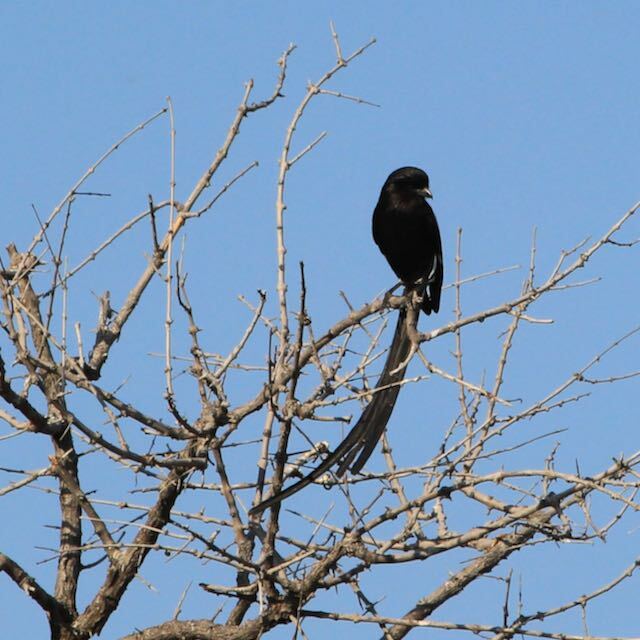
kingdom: Animalia
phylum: Chordata
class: Aves
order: Passeriformes
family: Laniidae
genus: Urolestes
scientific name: Urolestes melanoleucus
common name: Magpie shrike
